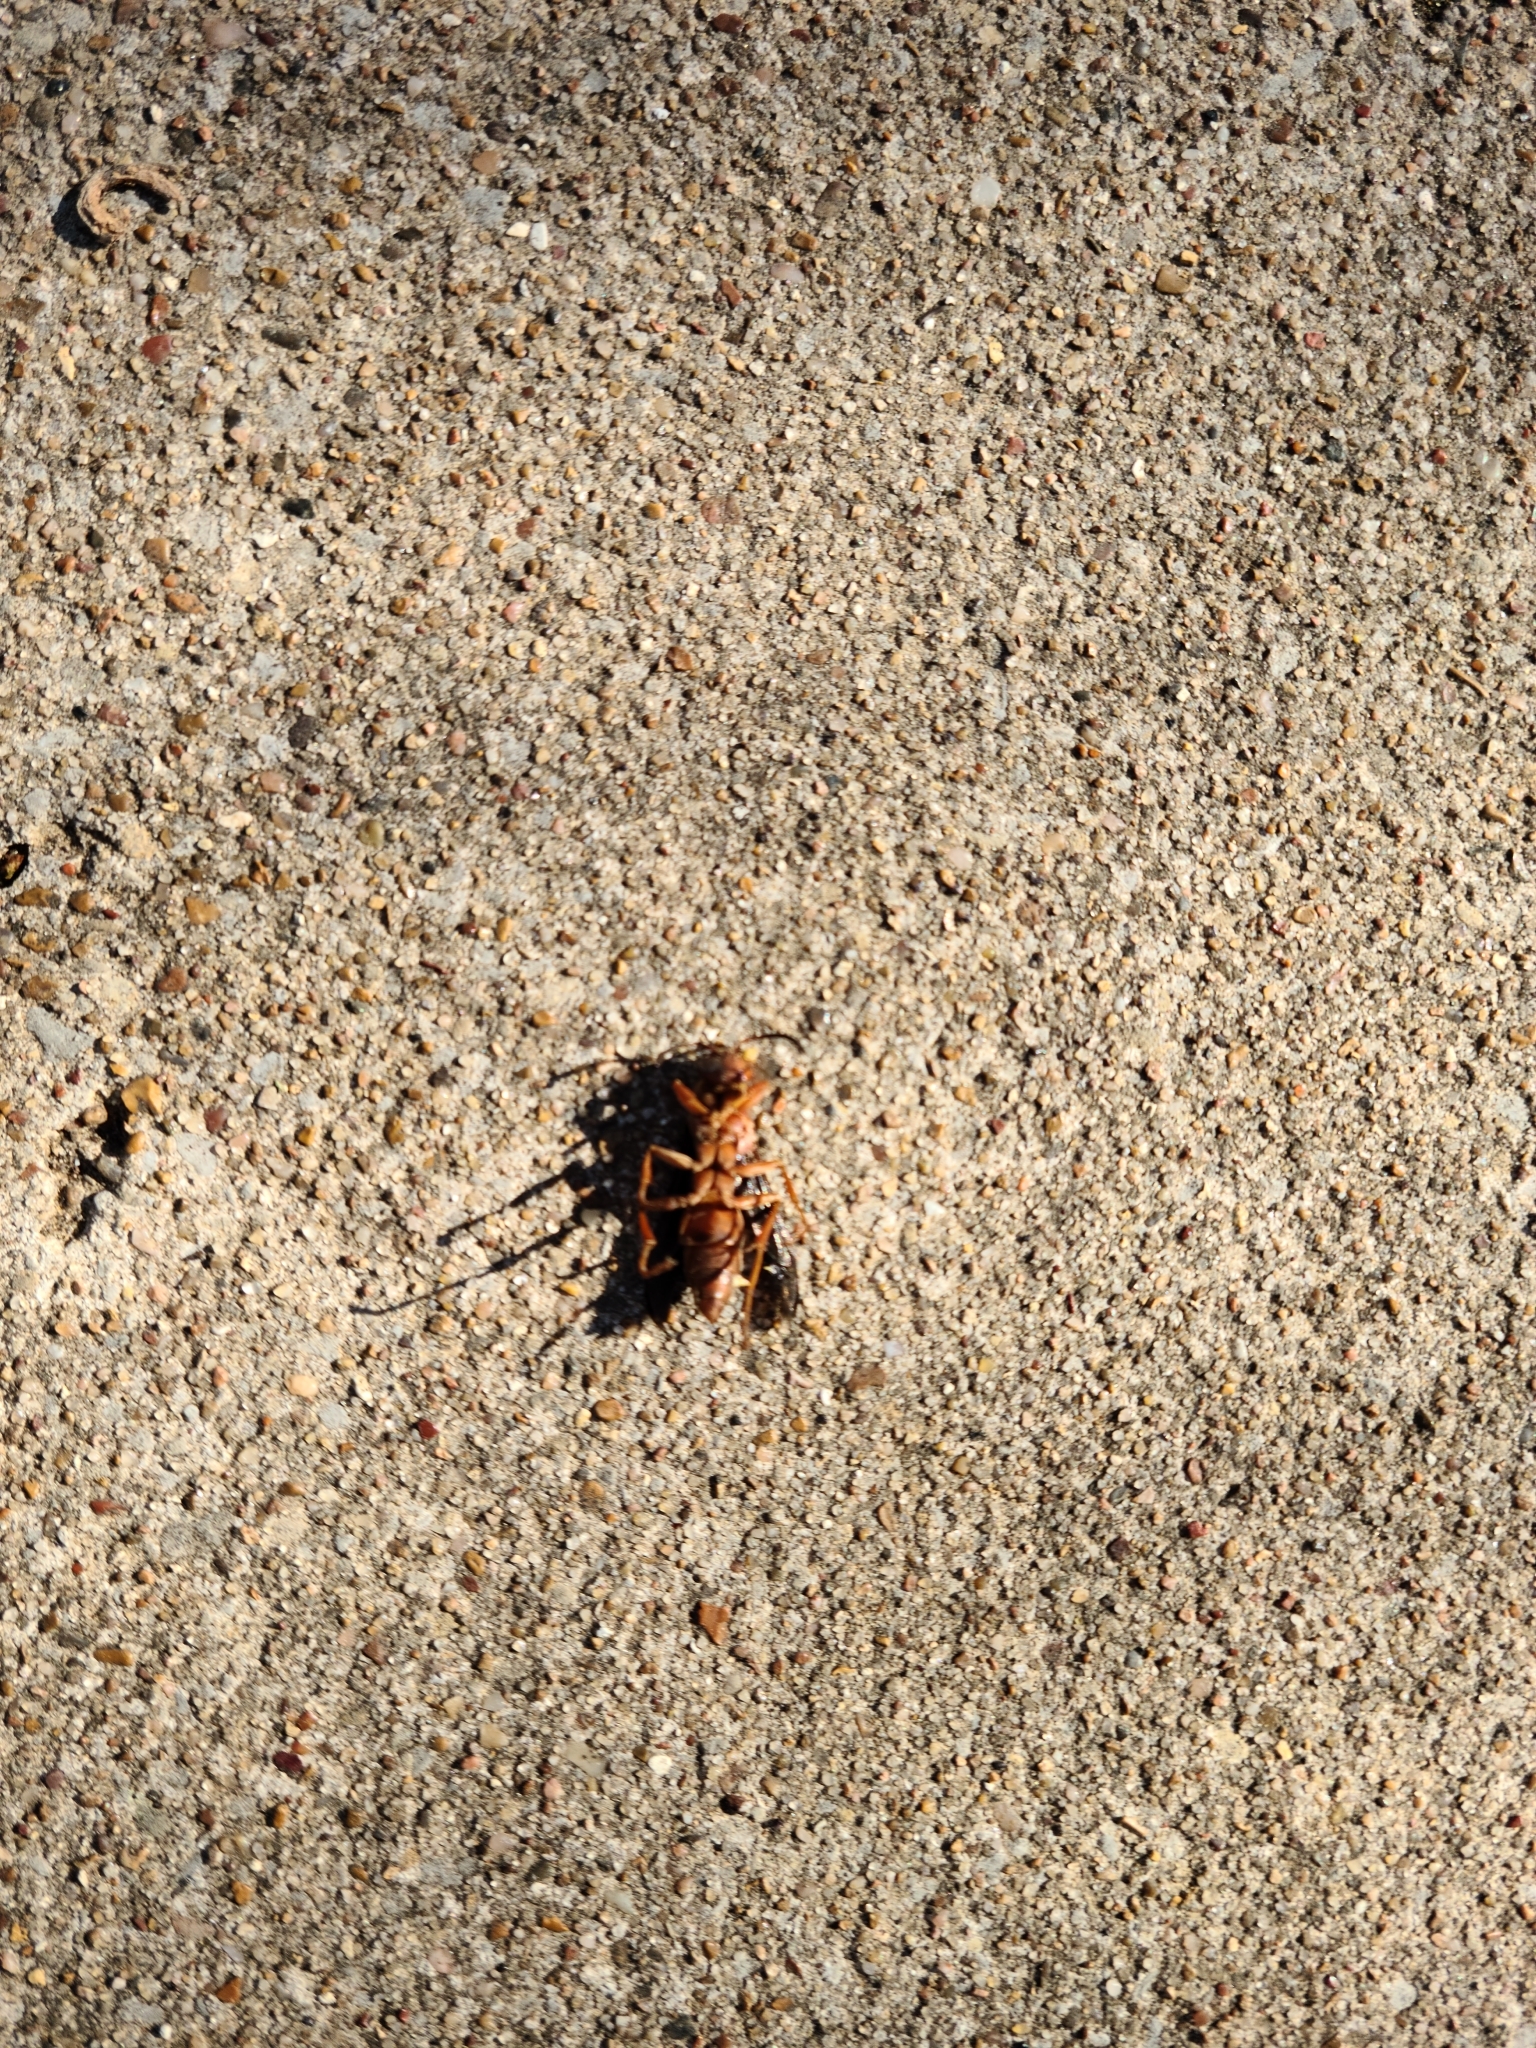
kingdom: Animalia
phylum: Arthropoda
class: Insecta
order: Hymenoptera
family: Vespidae
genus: Fuscopolistes
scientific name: Fuscopolistes
